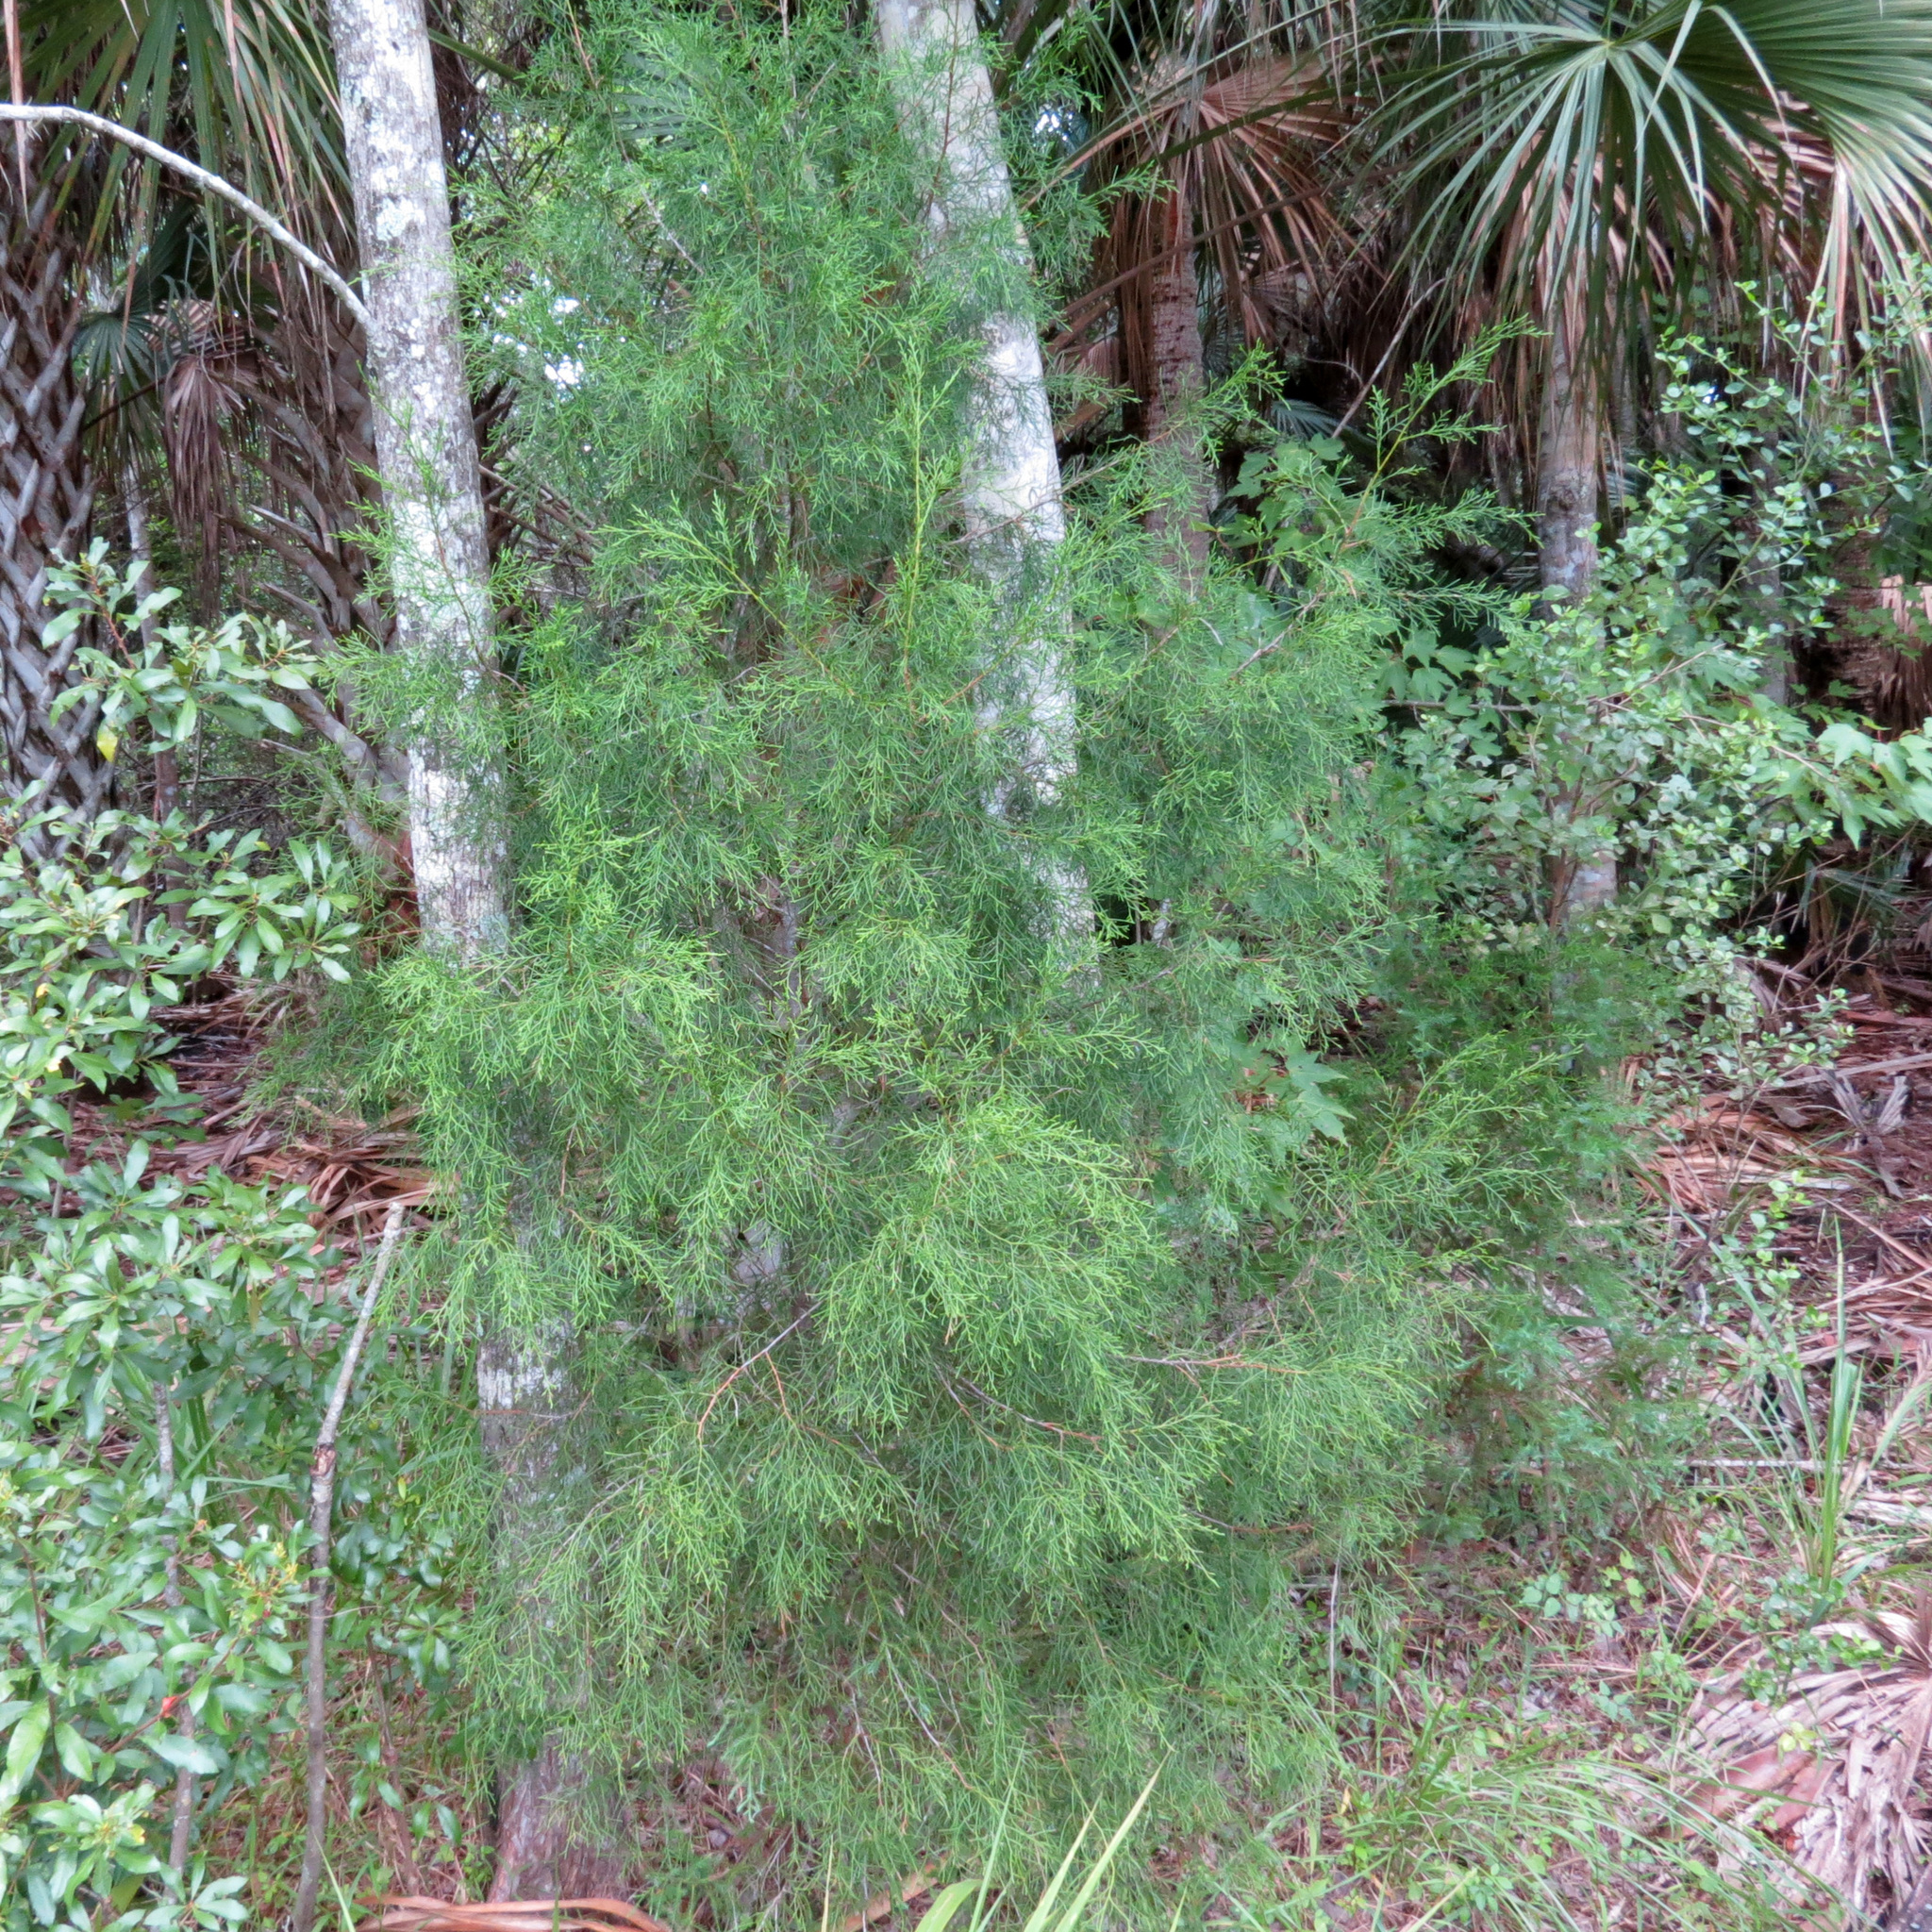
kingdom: Plantae
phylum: Tracheophyta
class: Pinopsida
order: Pinales
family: Cupressaceae
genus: Juniperus
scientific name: Juniperus virginiana
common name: Red juniper
